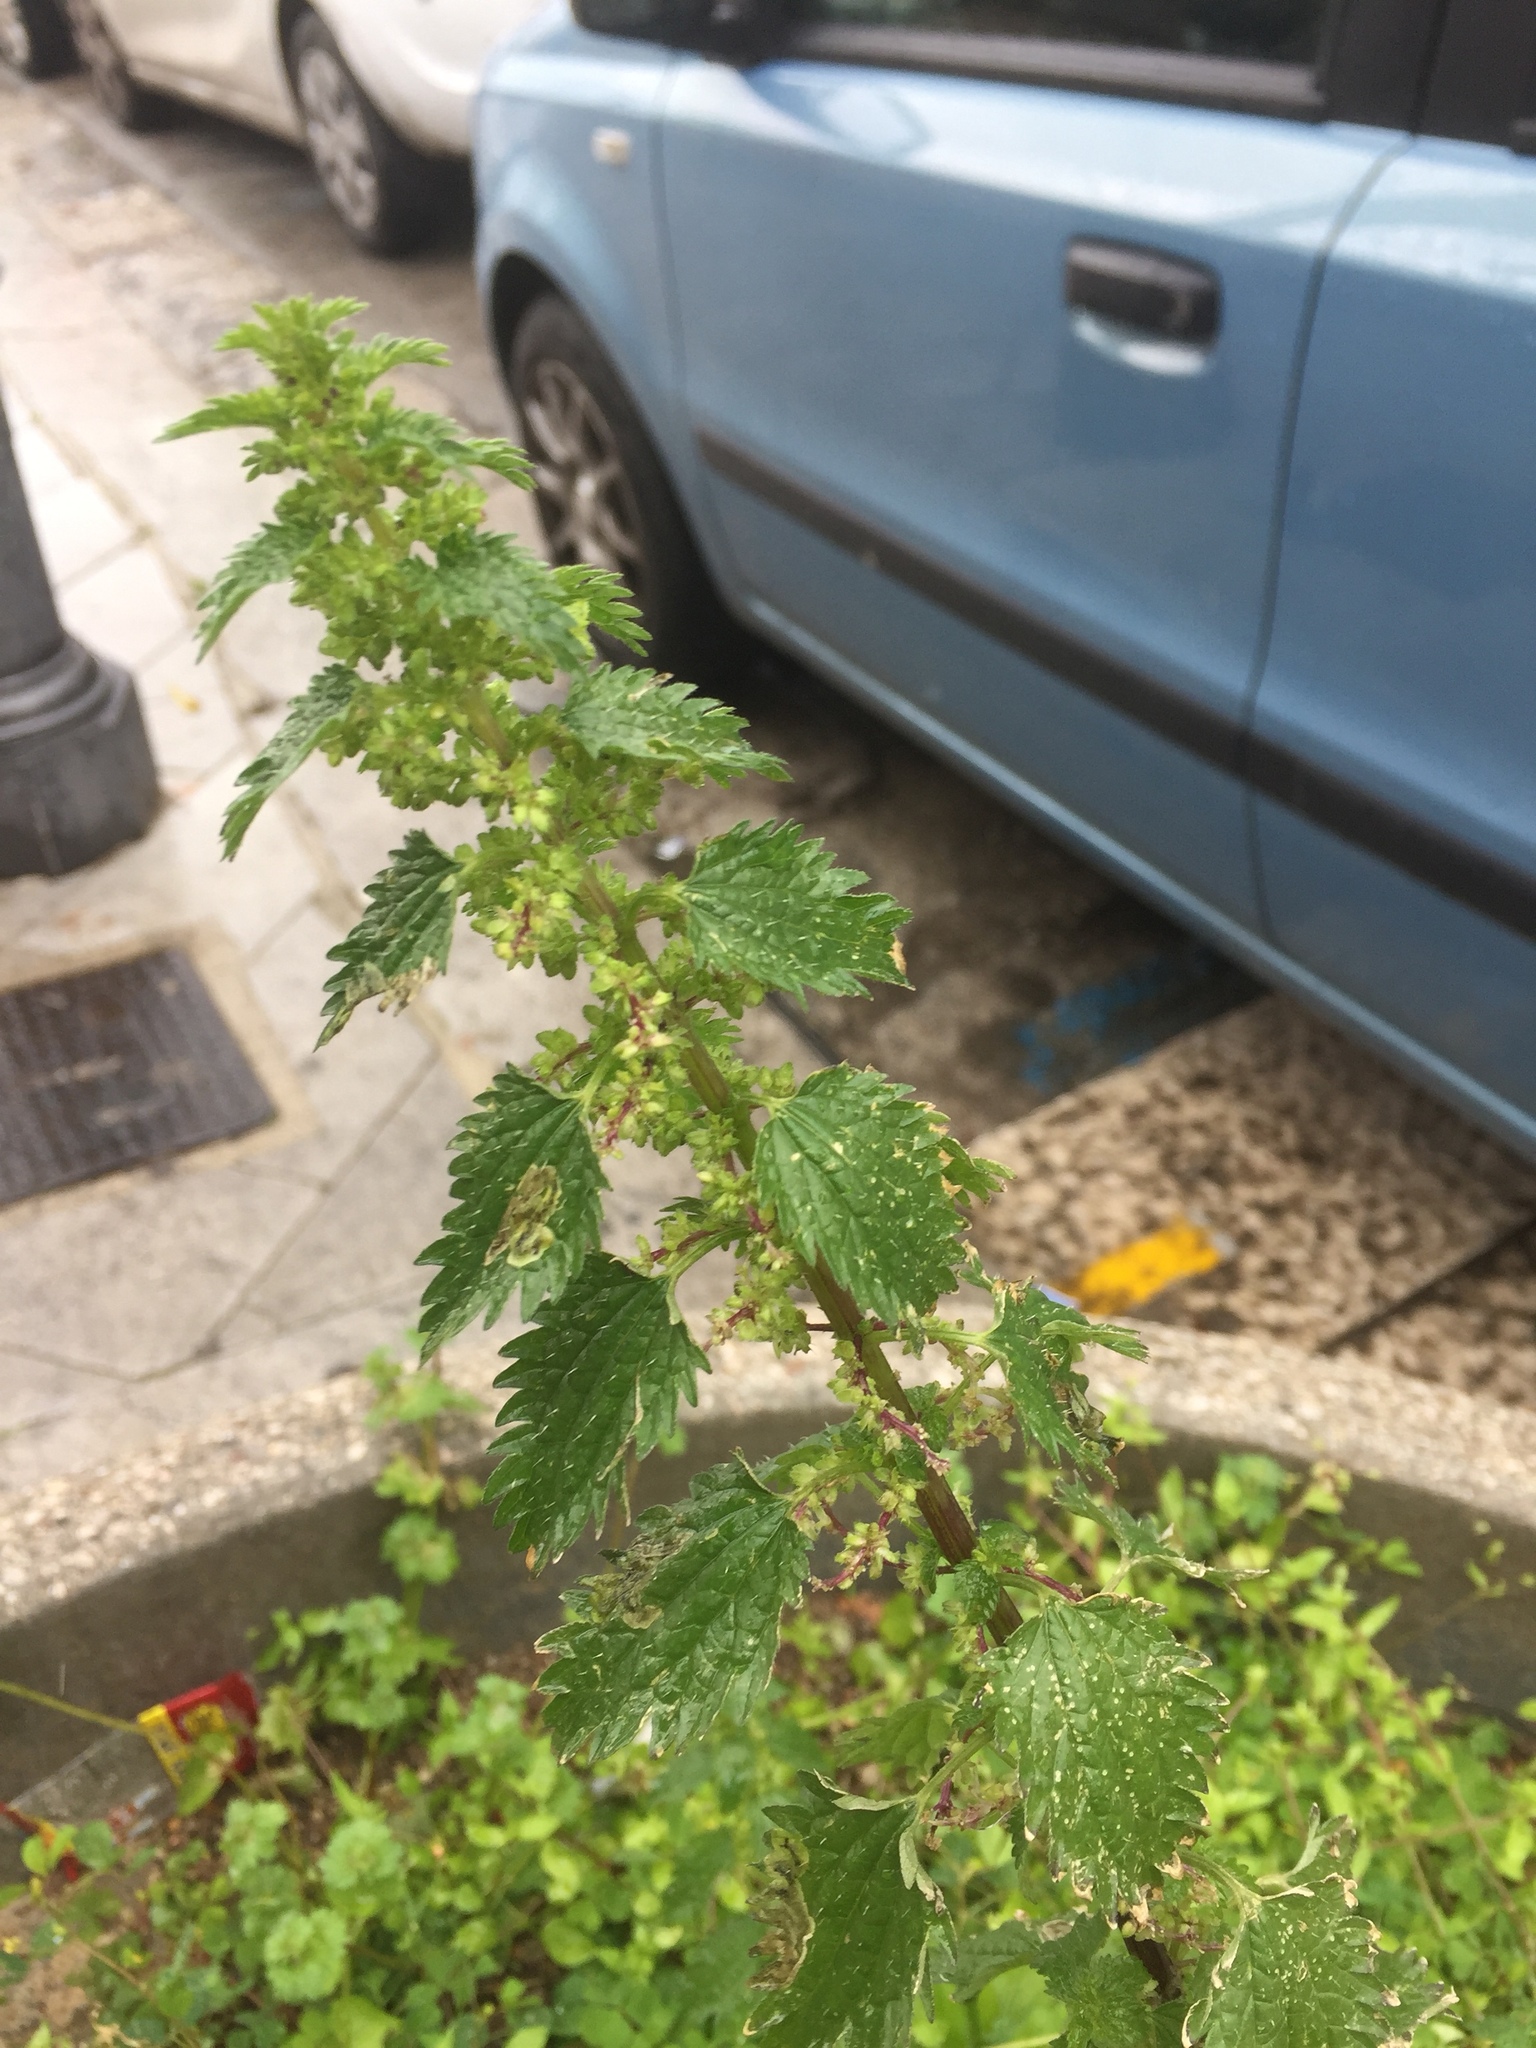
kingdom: Plantae
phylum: Tracheophyta
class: Magnoliopsida
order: Rosales
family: Urticaceae
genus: Urtica
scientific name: Urtica urens
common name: Dwarf nettle
